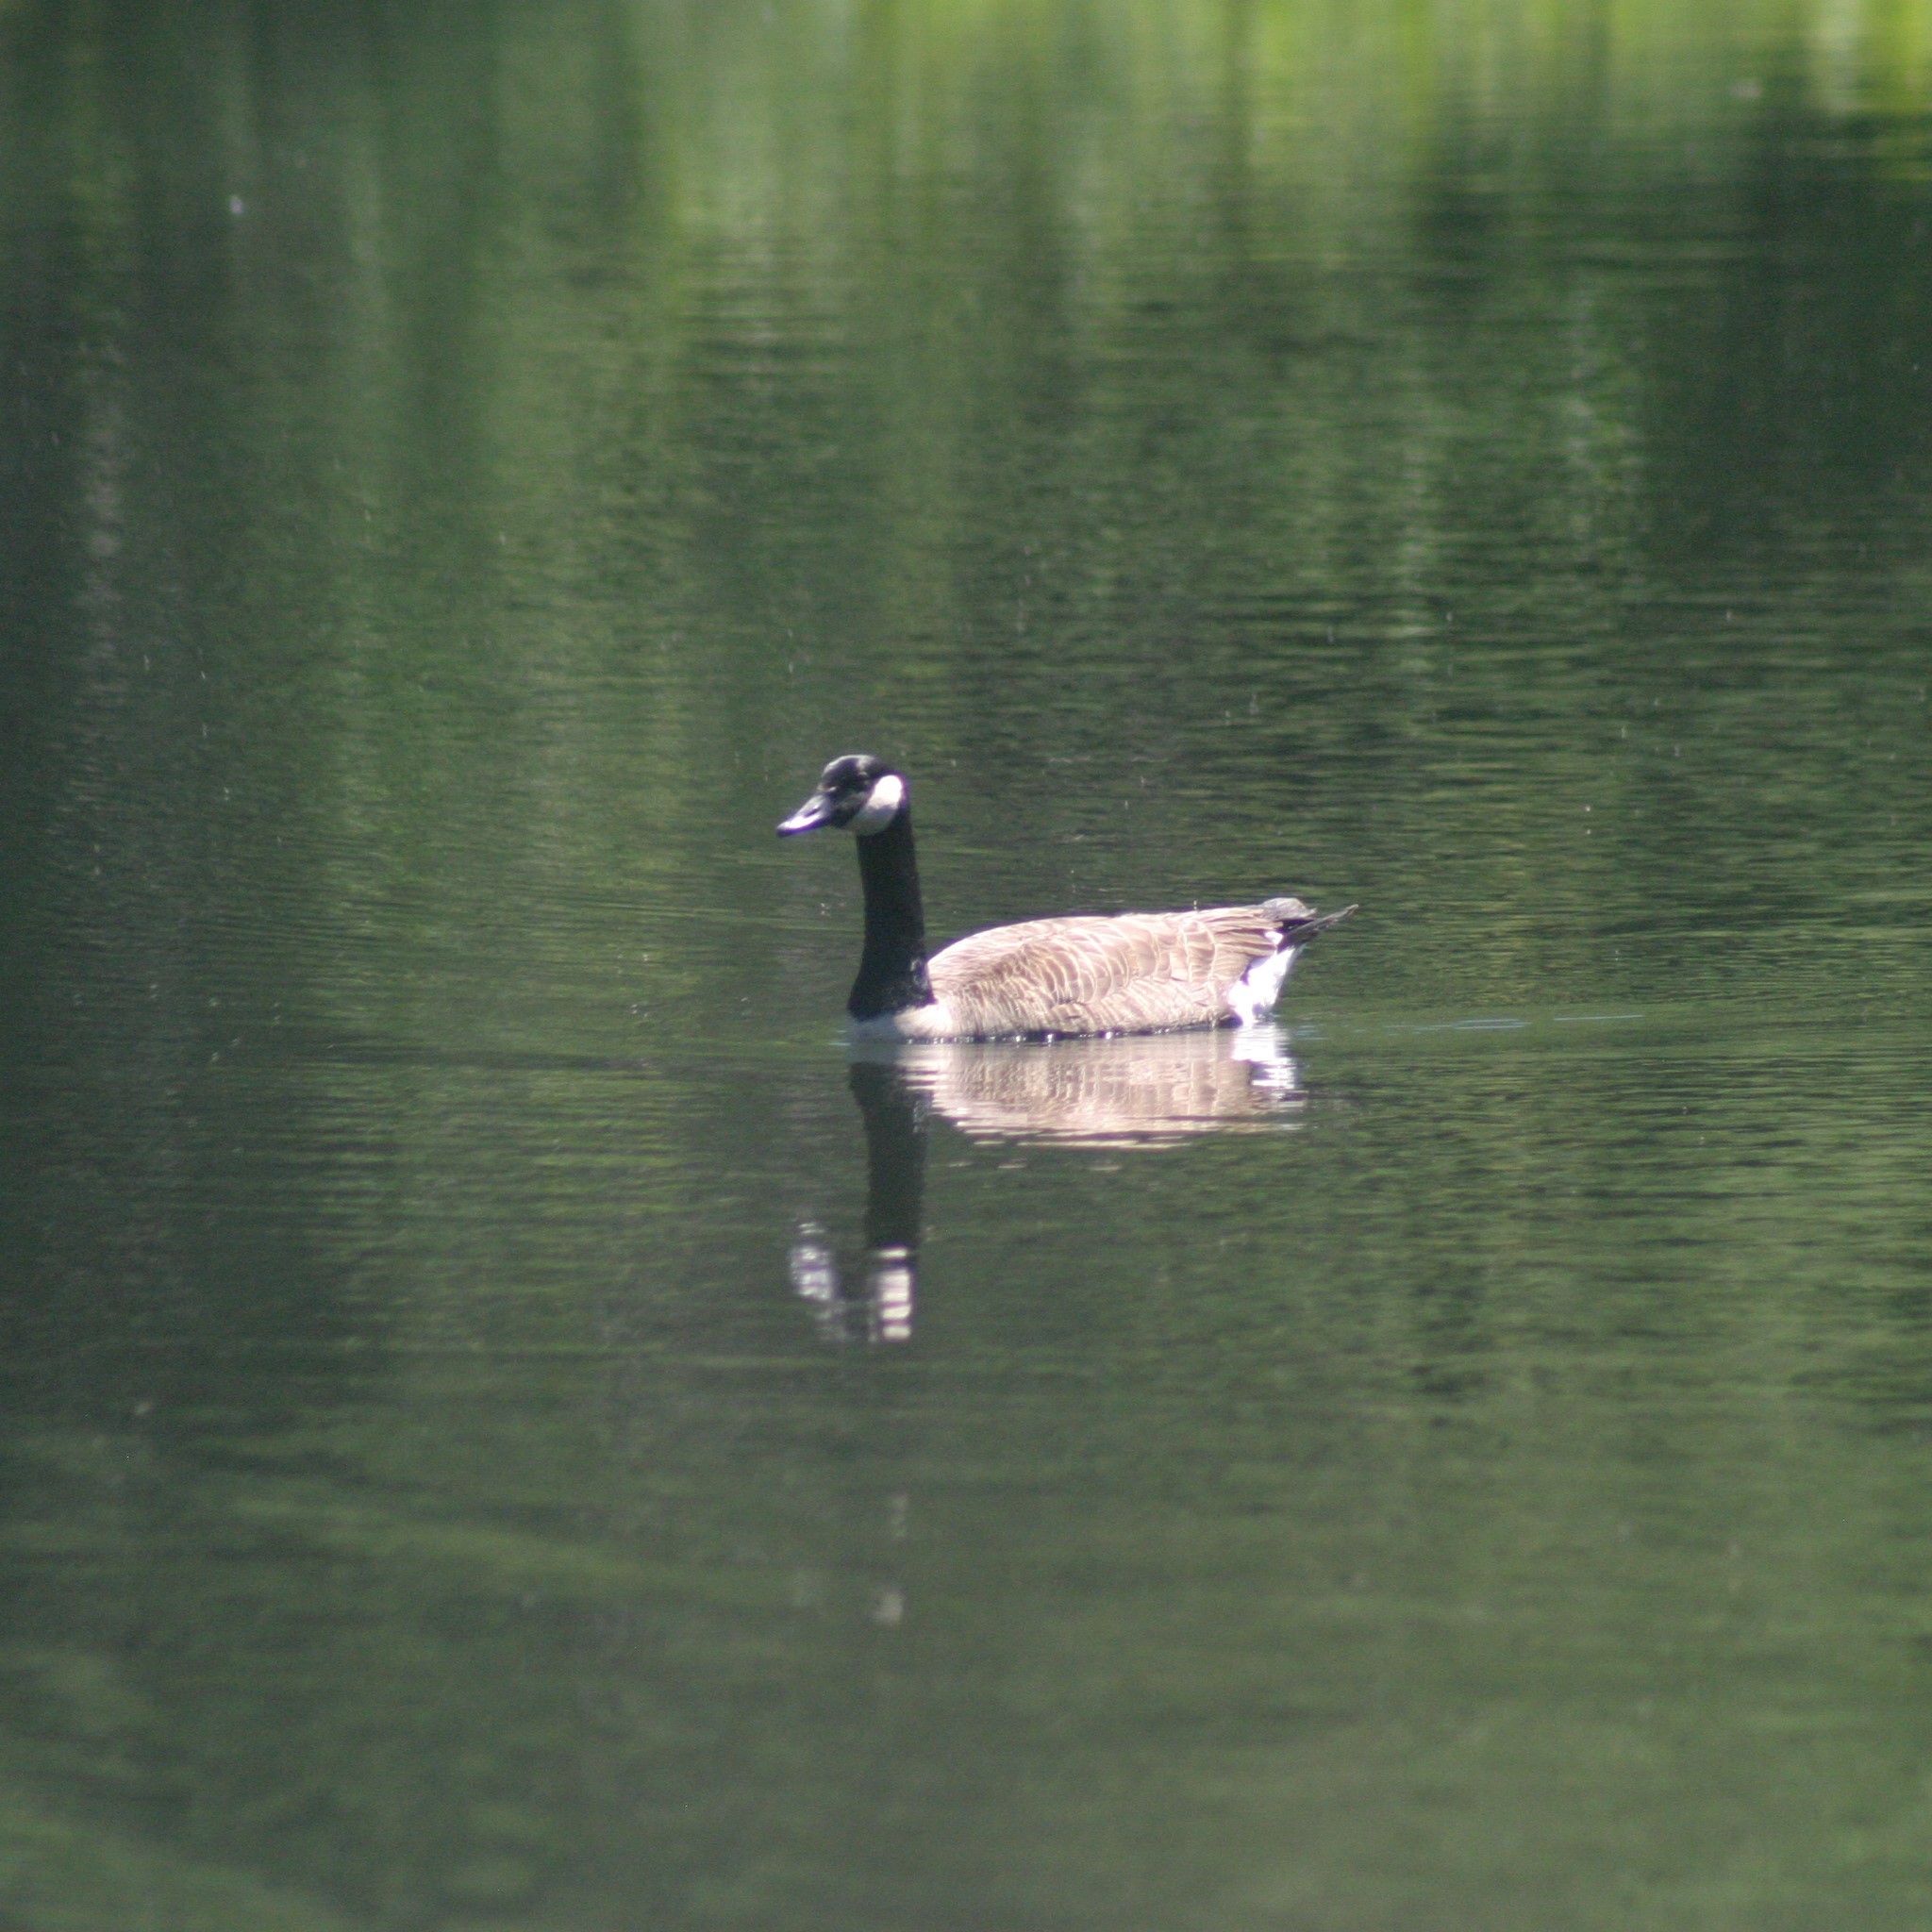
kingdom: Animalia
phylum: Chordata
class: Aves
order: Anseriformes
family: Anatidae
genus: Branta
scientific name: Branta canadensis
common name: Canada goose
